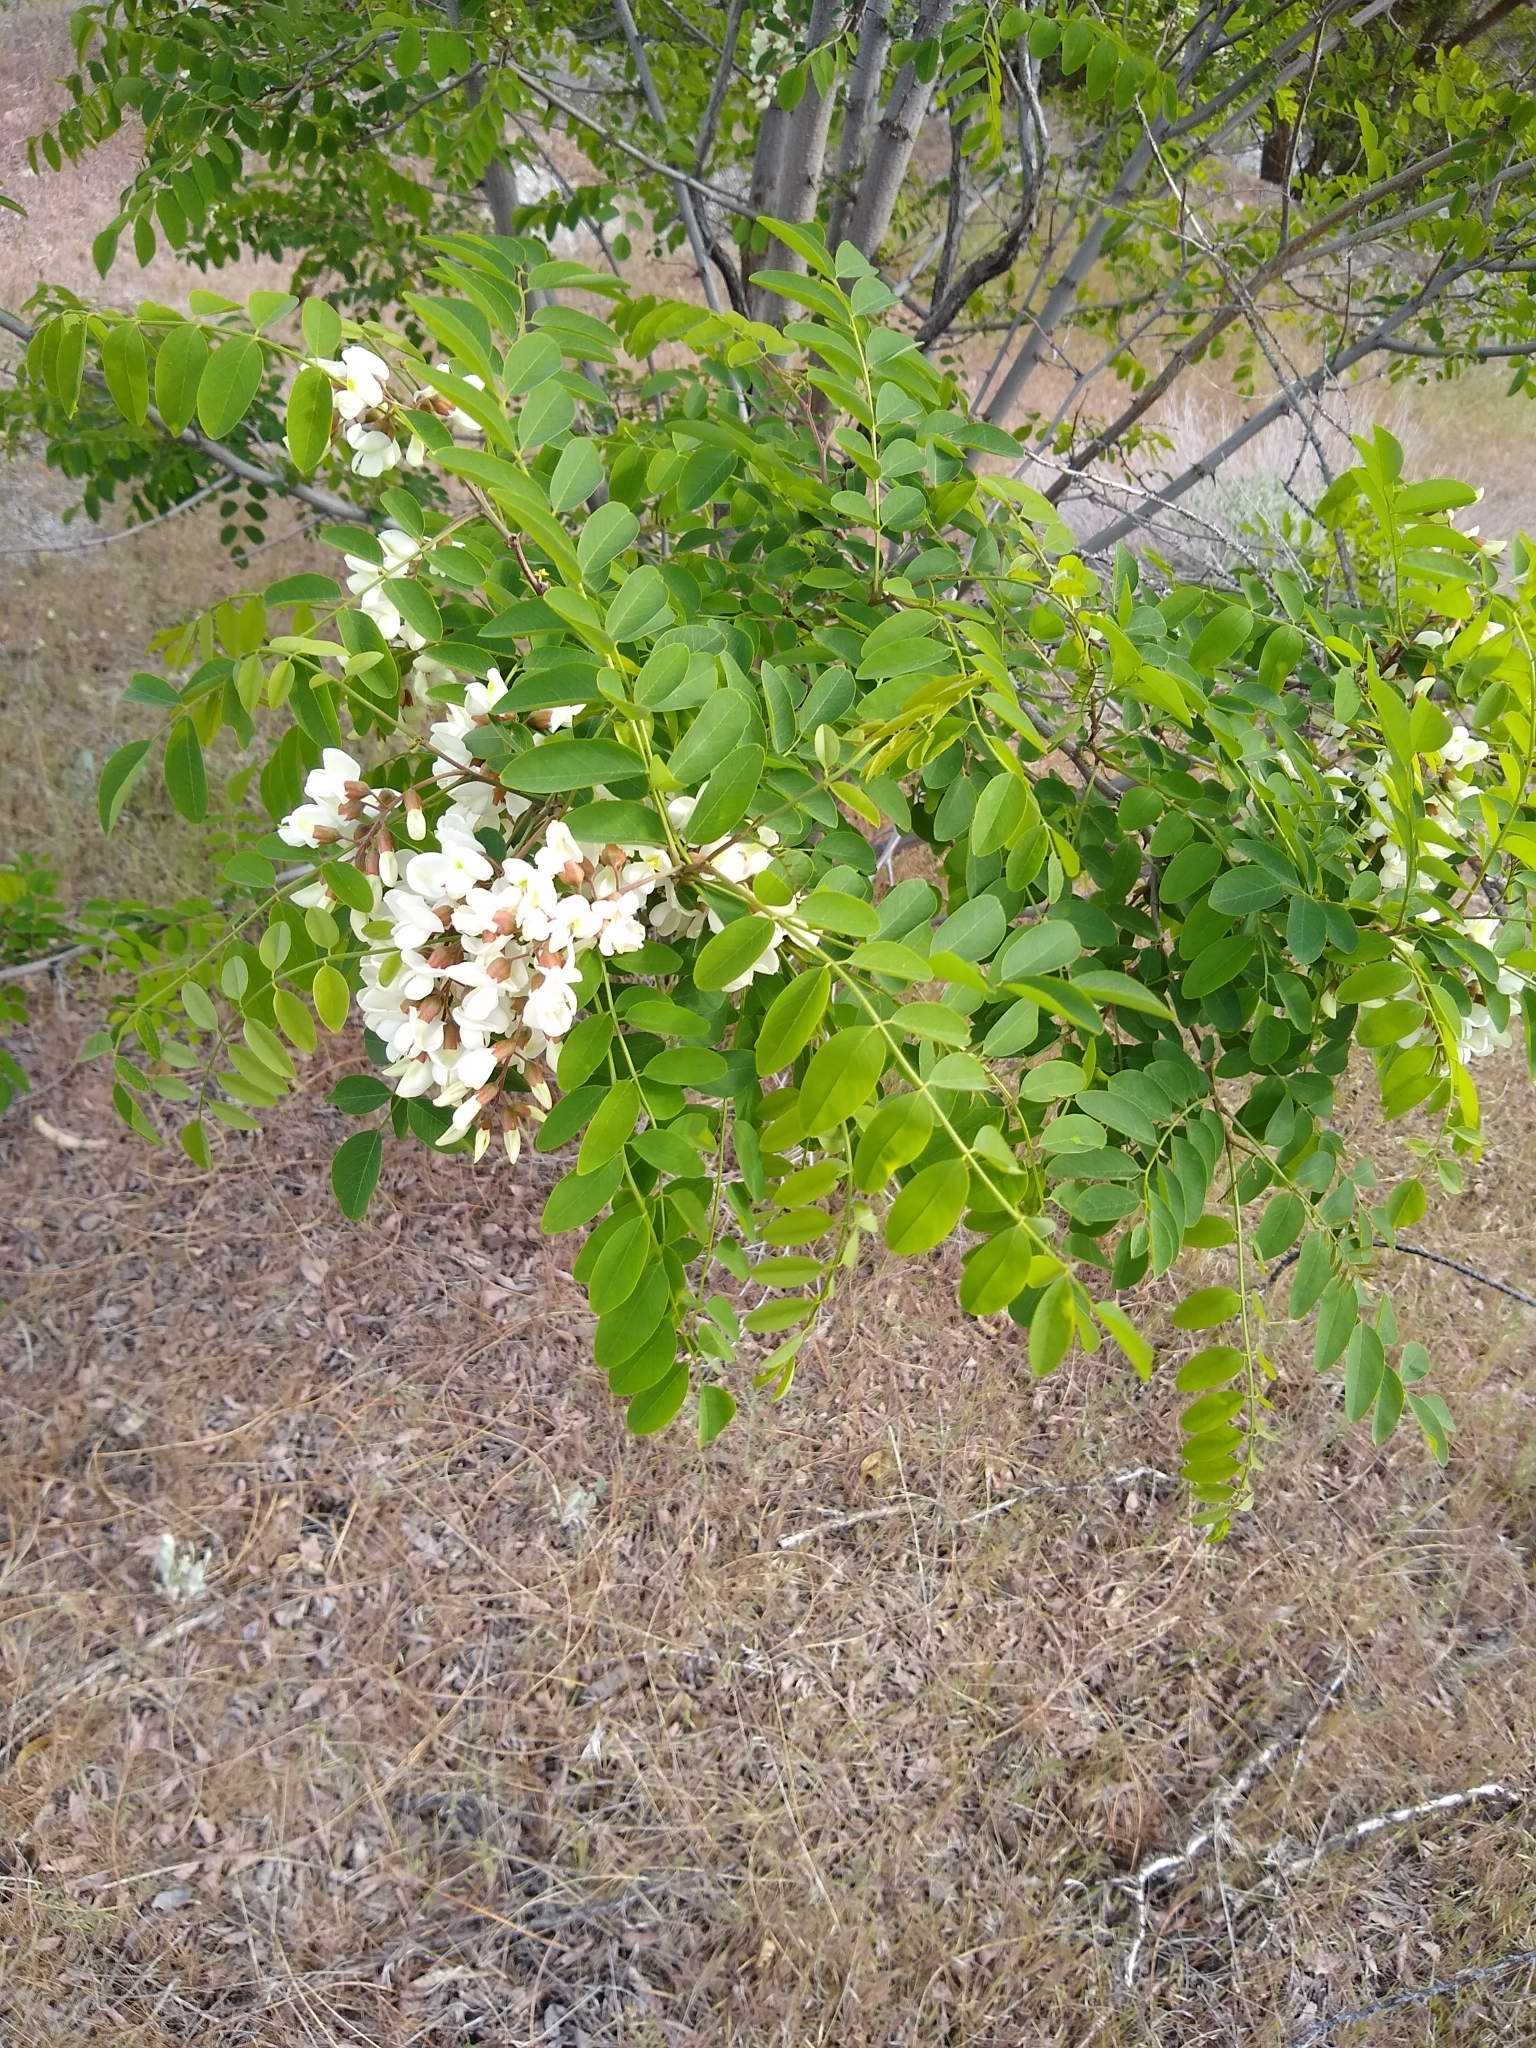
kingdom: Plantae
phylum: Tracheophyta
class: Magnoliopsida
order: Fabales
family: Fabaceae
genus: Robinia
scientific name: Robinia pseudoacacia
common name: Black locust
